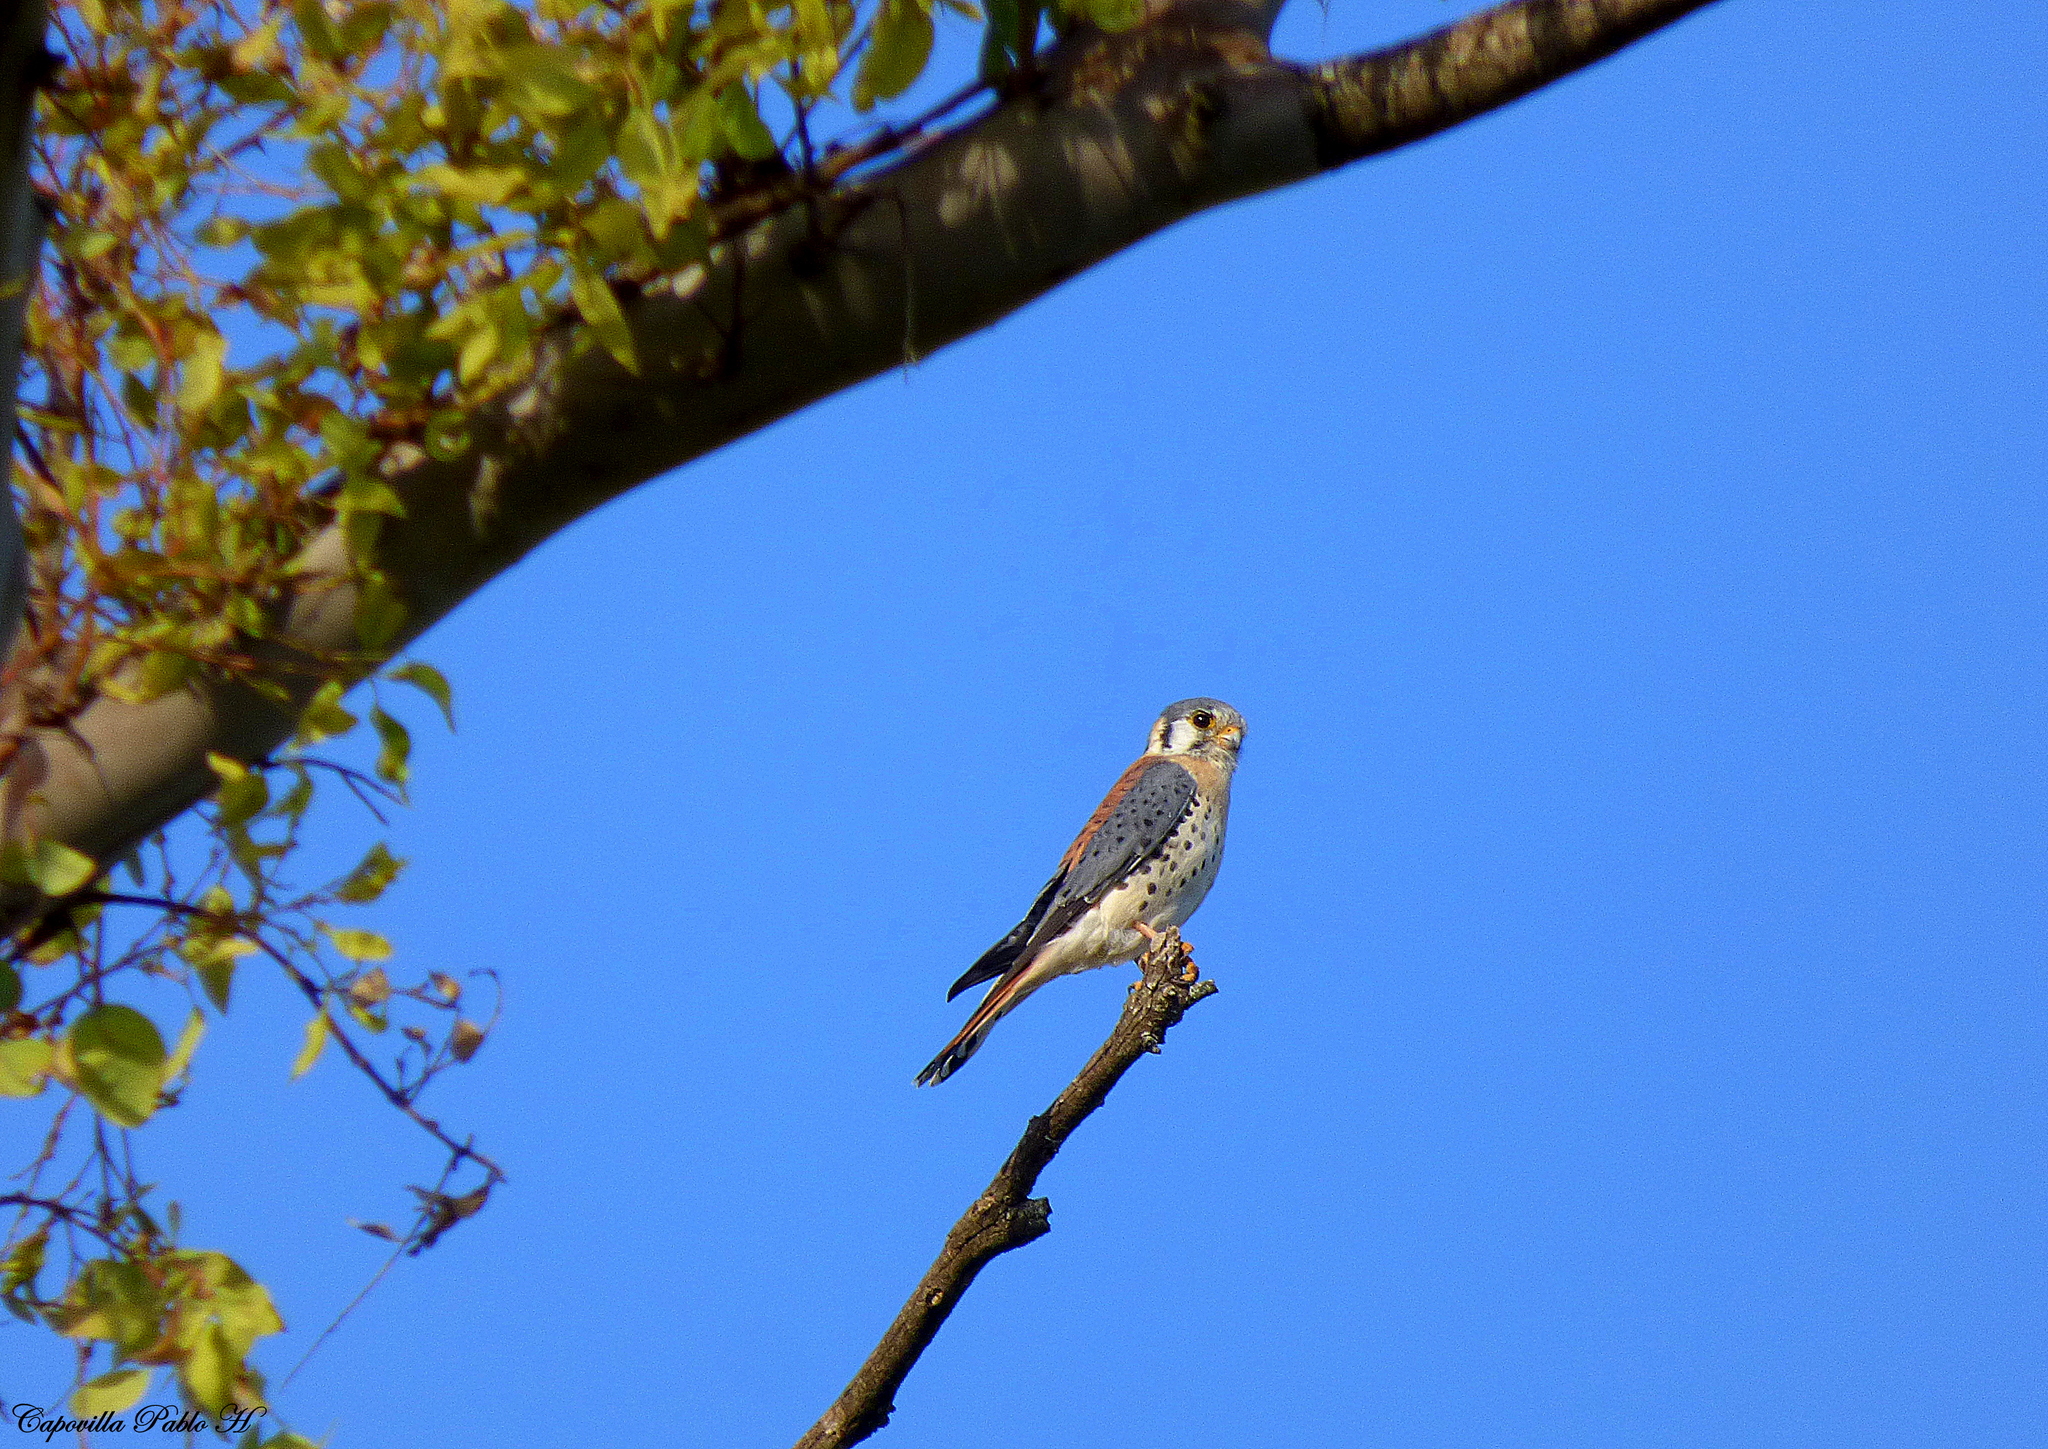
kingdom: Animalia
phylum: Chordata
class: Aves
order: Falconiformes
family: Falconidae
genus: Falco
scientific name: Falco sparverius
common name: American kestrel
